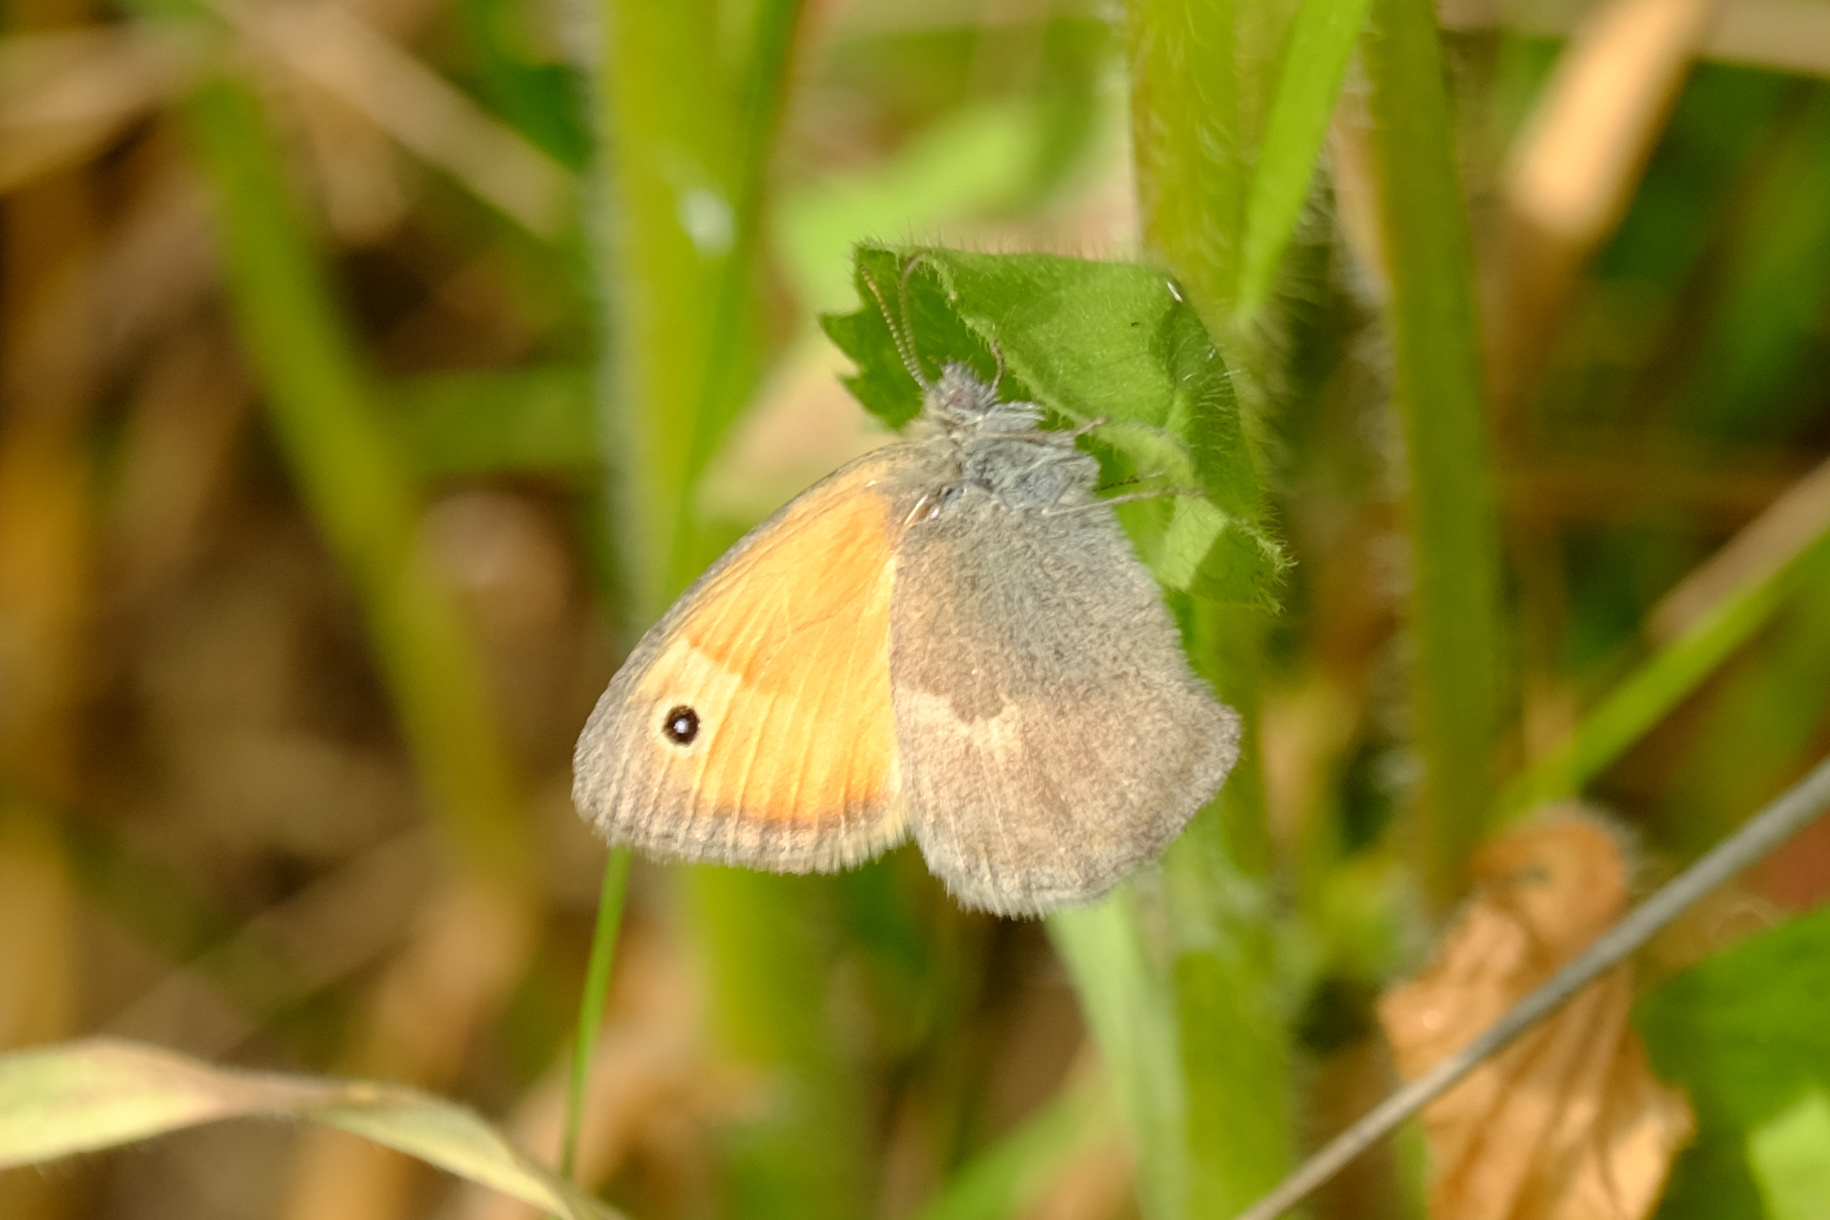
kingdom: Animalia
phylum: Arthropoda
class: Insecta
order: Lepidoptera
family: Nymphalidae
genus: Coenonympha
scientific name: Coenonympha pamphilus
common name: Small heath
